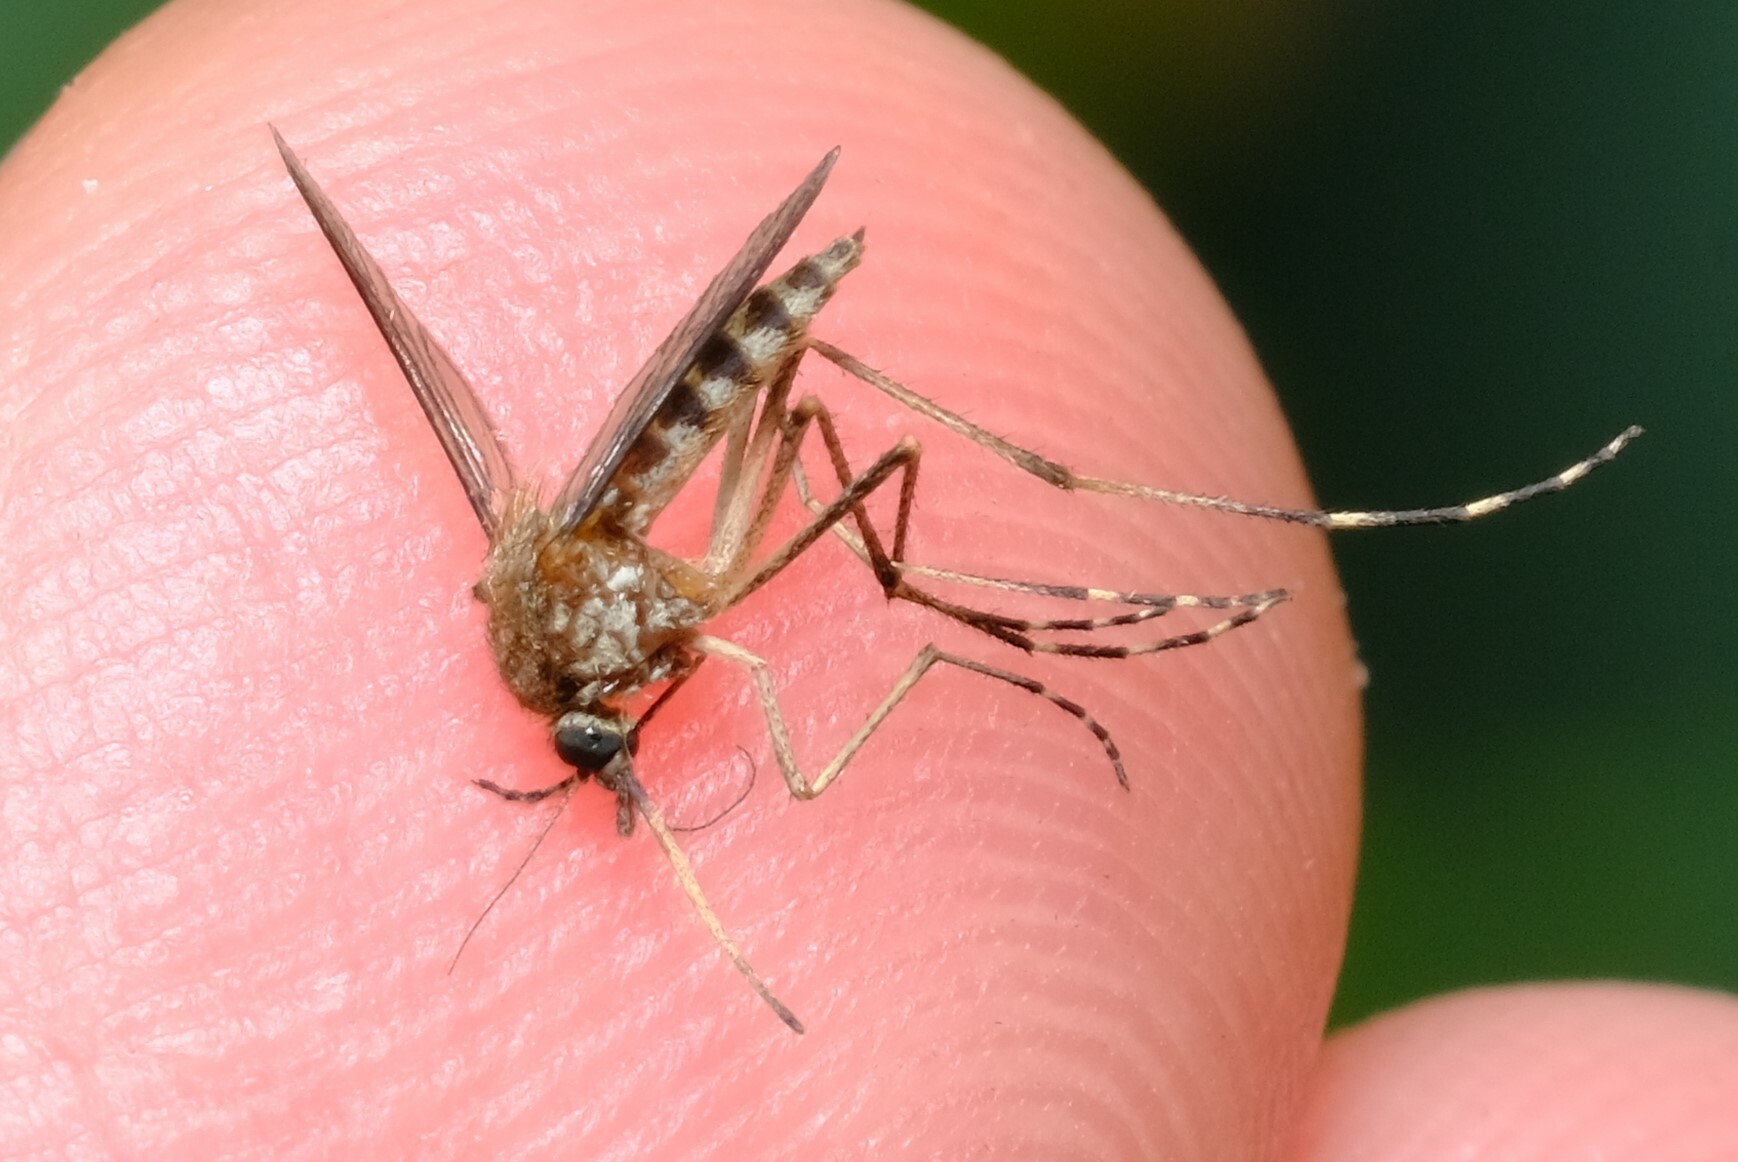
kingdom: Animalia
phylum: Arthropoda
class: Insecta
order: Diptera
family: Culicidae
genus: Aedes
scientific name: Aedes camptorhynchus
